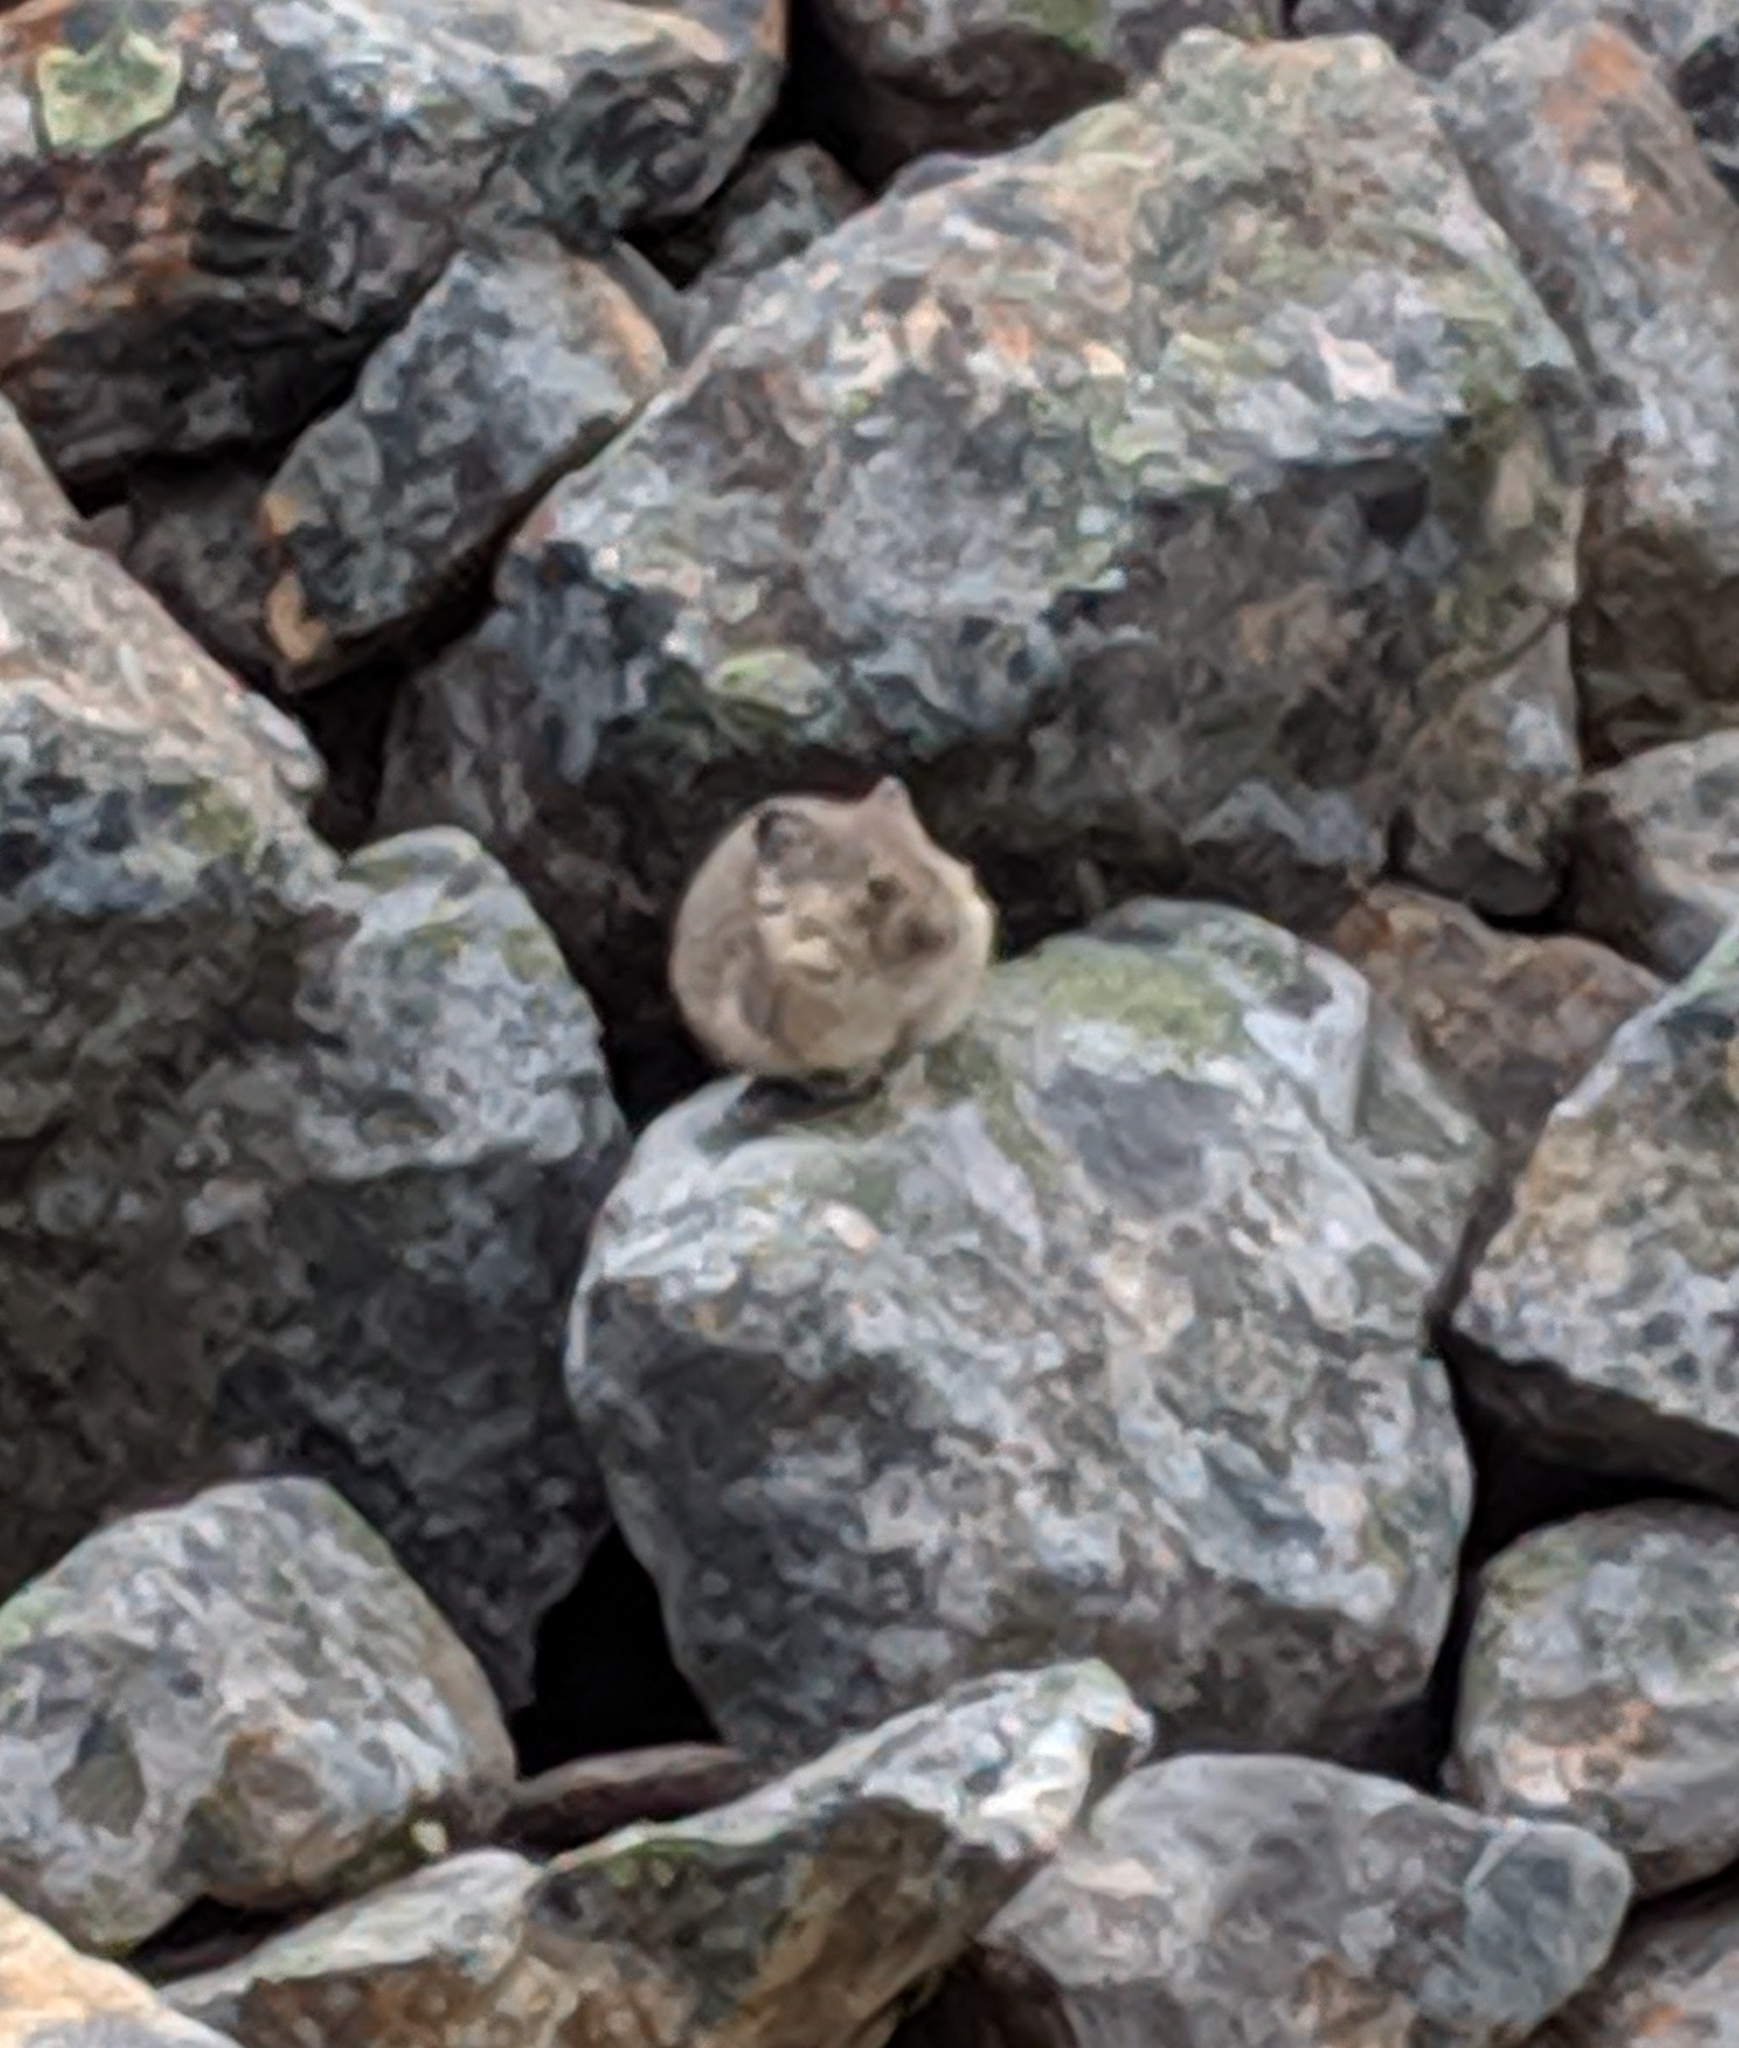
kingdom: Animalia
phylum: Chordata
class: Mammalia
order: Lagomorpha
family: Ochotonidae
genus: Ochotona
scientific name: Ochotona princeps
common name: American pika
